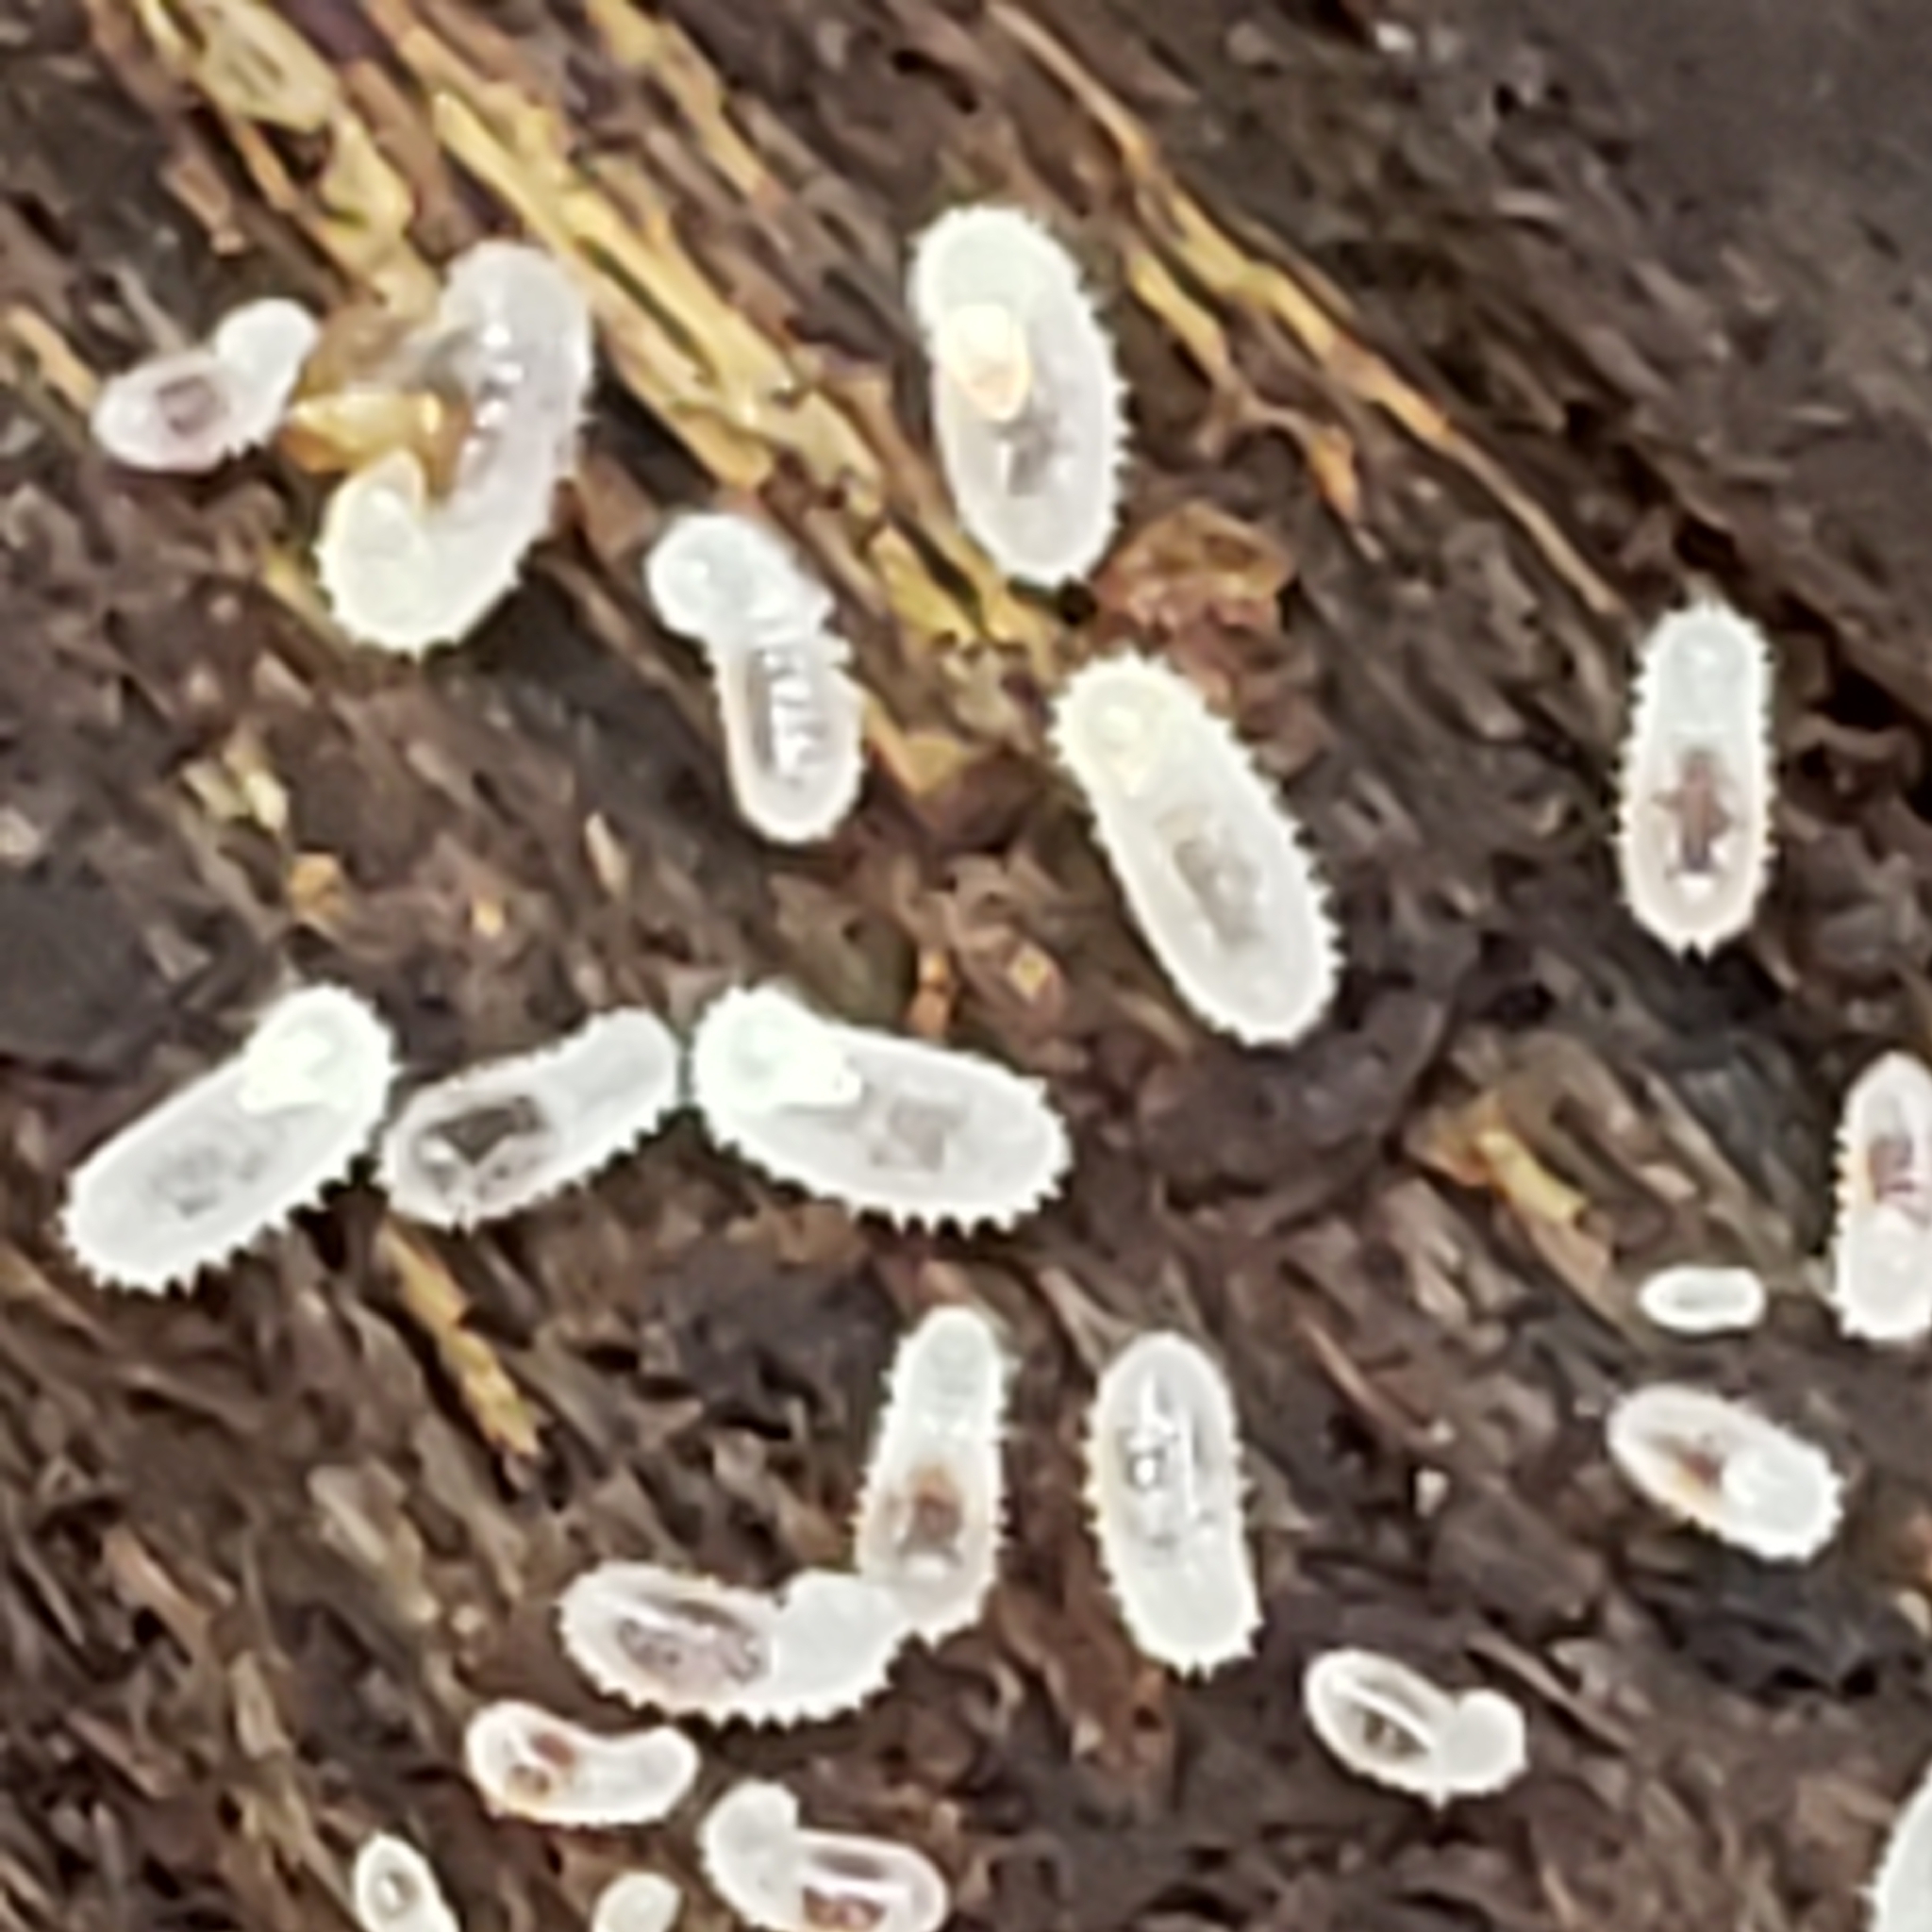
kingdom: Animalia
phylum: Arthropoda
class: Insecta
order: Hymenoptera
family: Formicidae
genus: Pachycondyla
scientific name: Pachycondyla chinensis
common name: Asian needle ant
